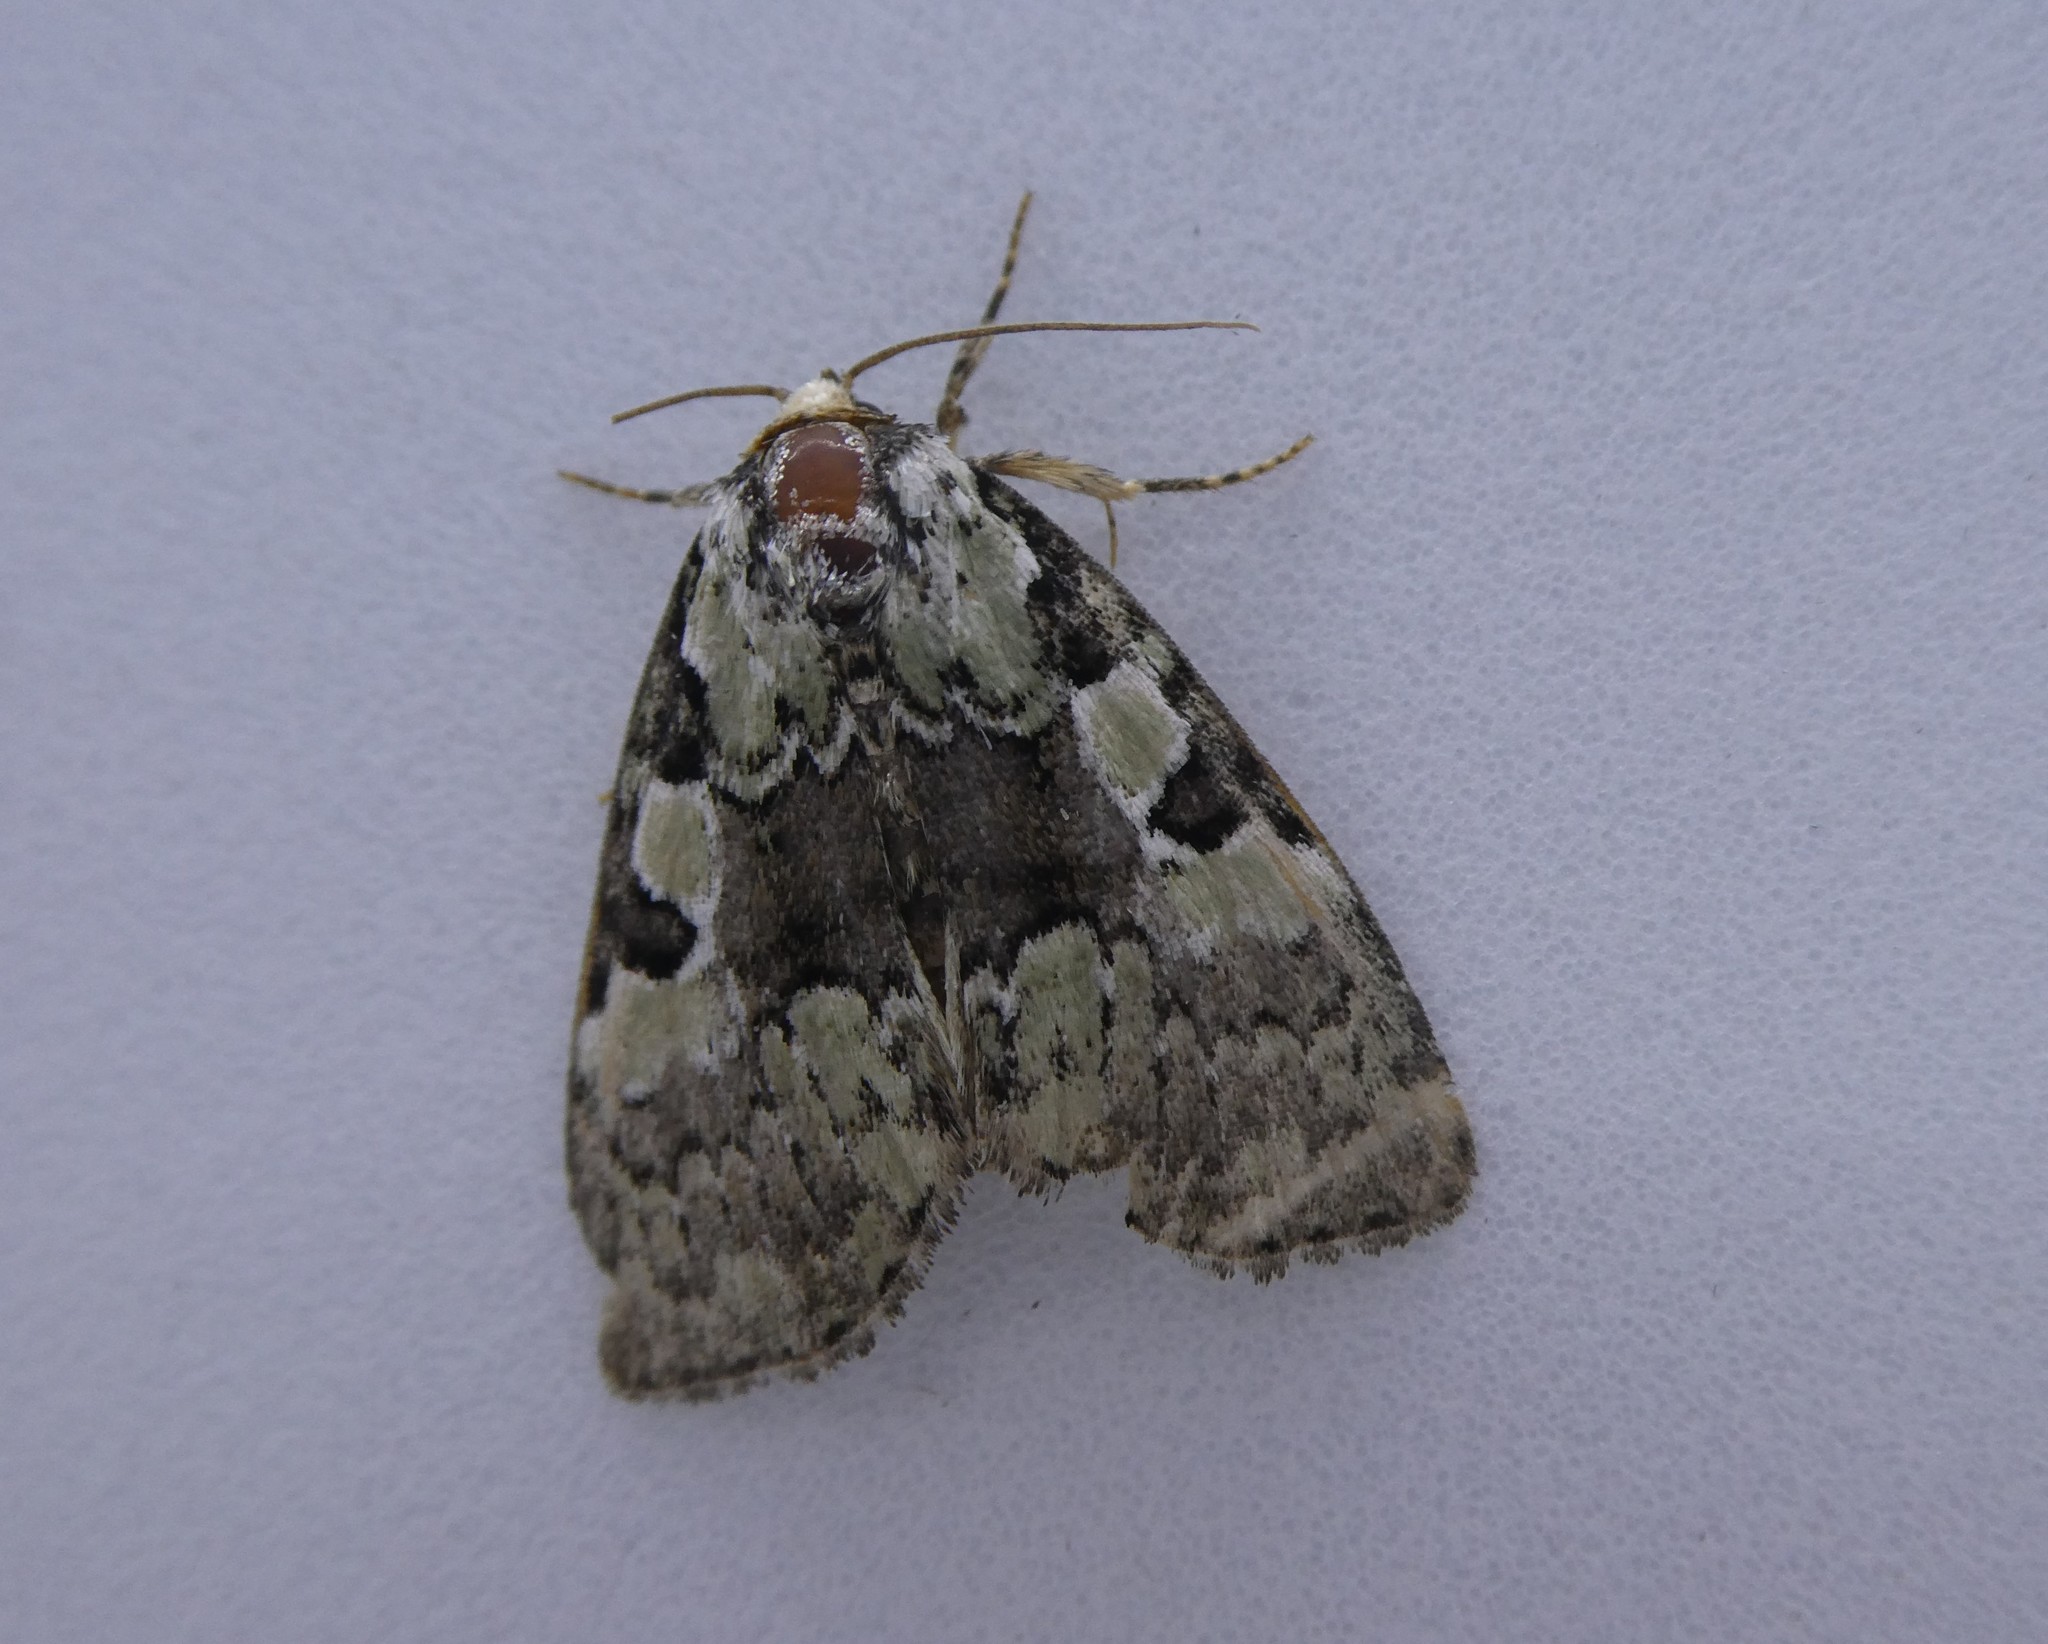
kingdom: Animalia
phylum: Arthropoda
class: Insecta
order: Lepidoptera
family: Noctuidae
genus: Leuconycta
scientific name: Leuconycta lepidula
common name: Marbled-green leuconycta moth
